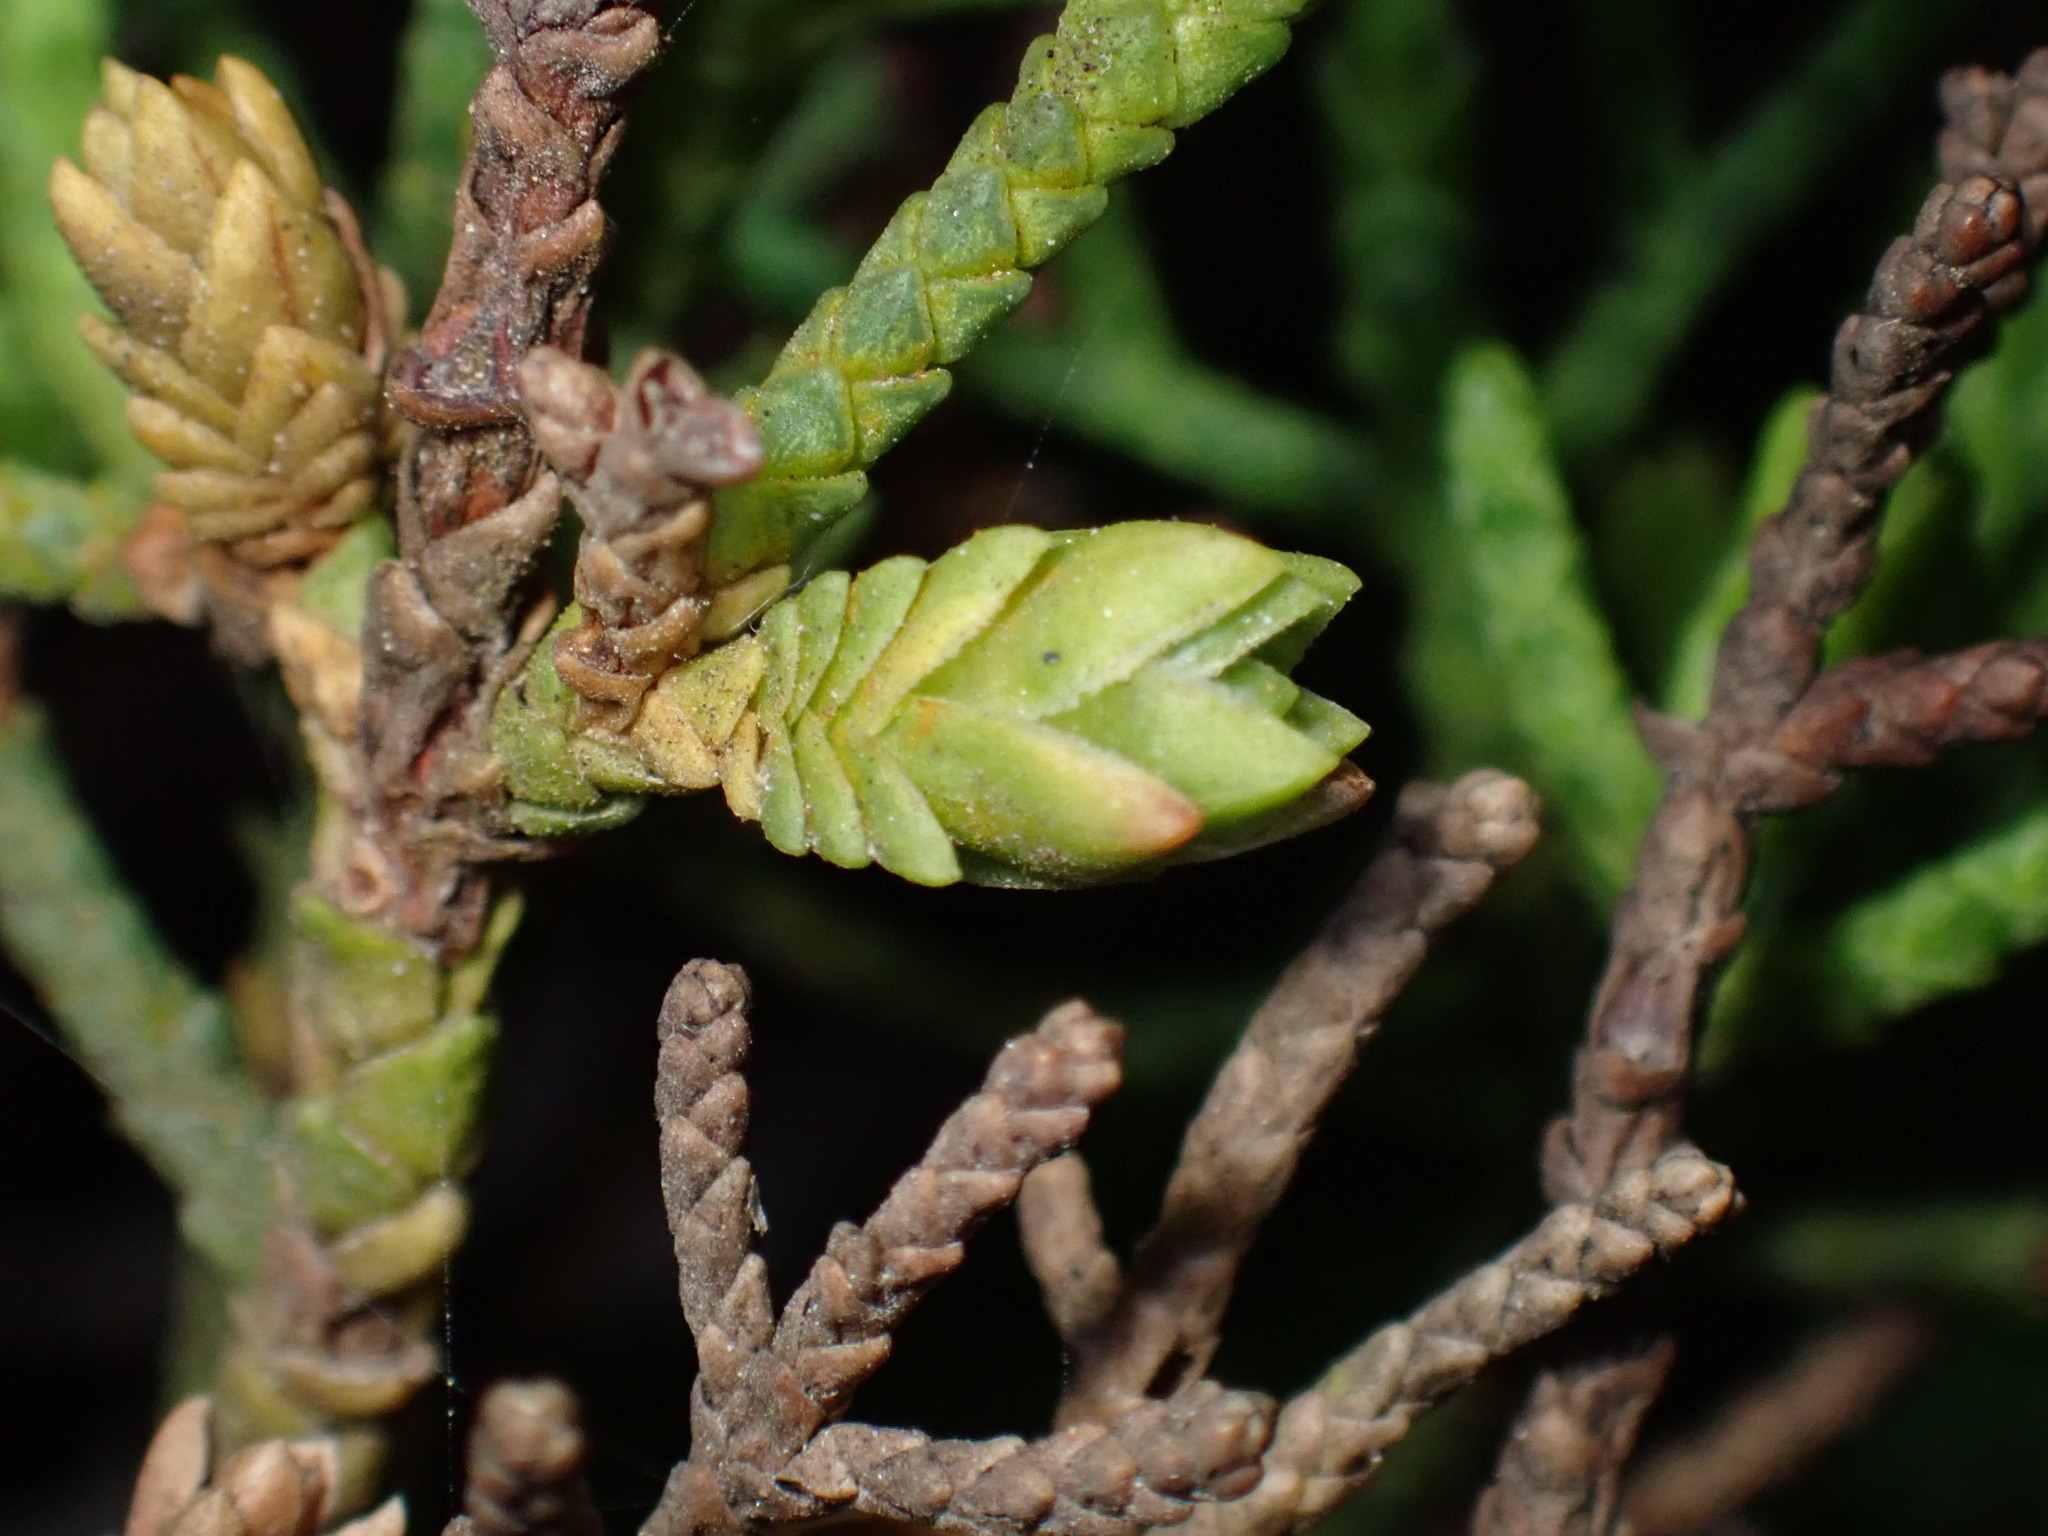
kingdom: Animalia
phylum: Arthropoda
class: Insecta
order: Diptera
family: Cecidomyiidae
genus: Oligotrophus
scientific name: Oligotrophus cupressi
